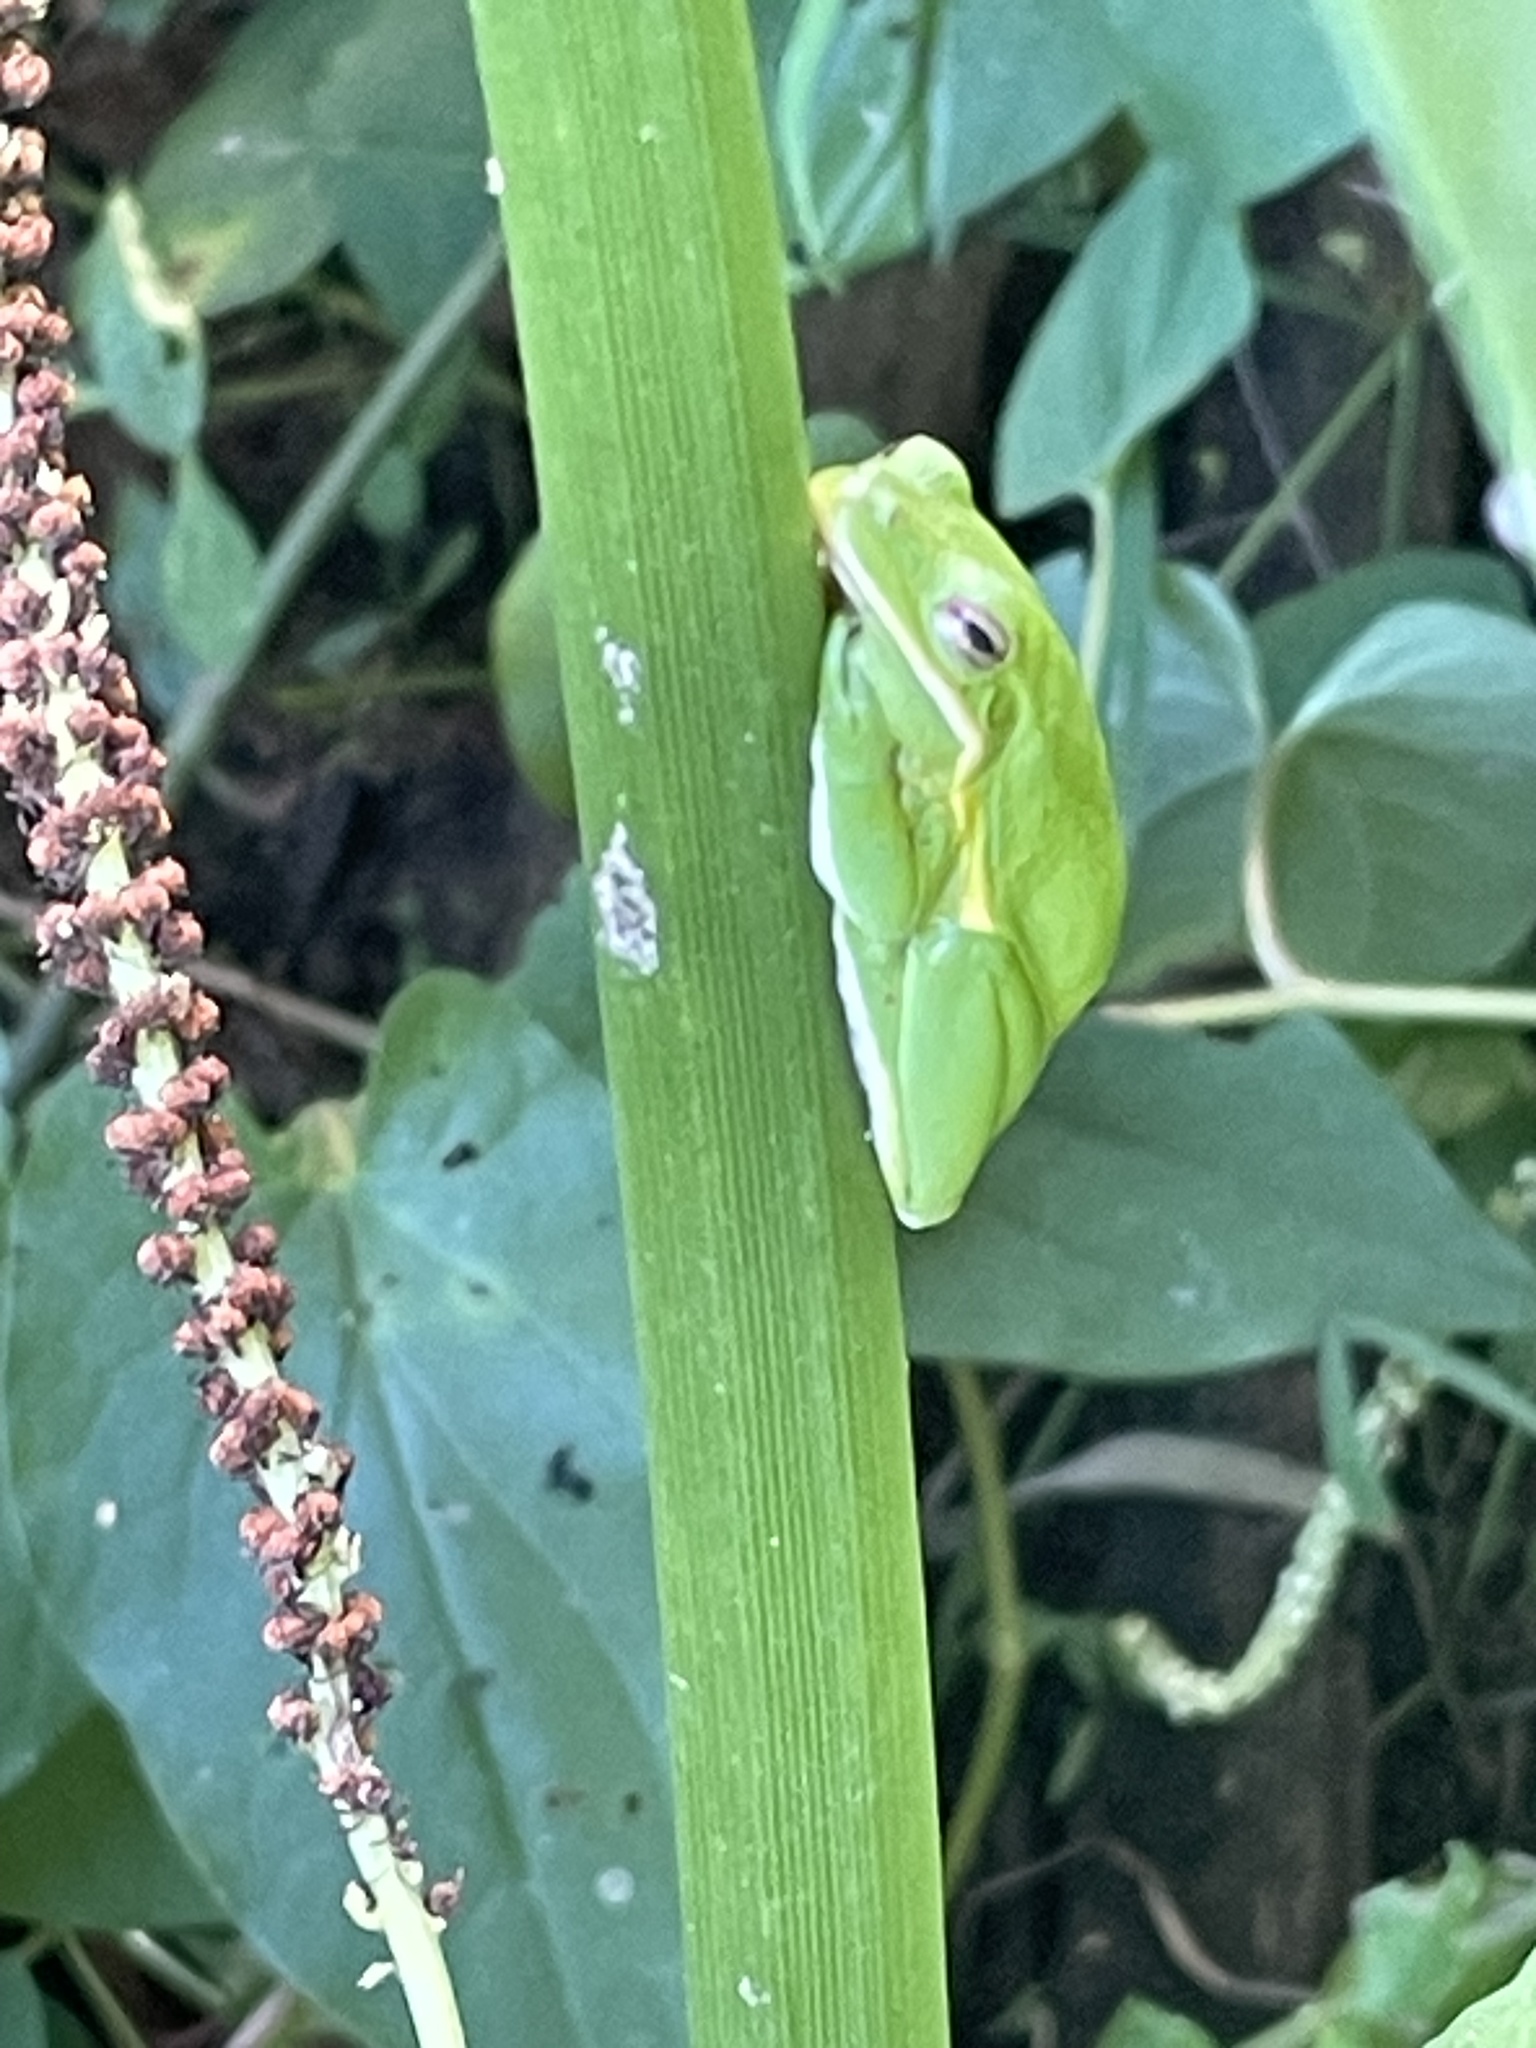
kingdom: Animalia
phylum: Chordata
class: Amphibia
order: Anura
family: Hylidae
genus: Dryophytes
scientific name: Dryophytes cinereus
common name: Green treefrog
